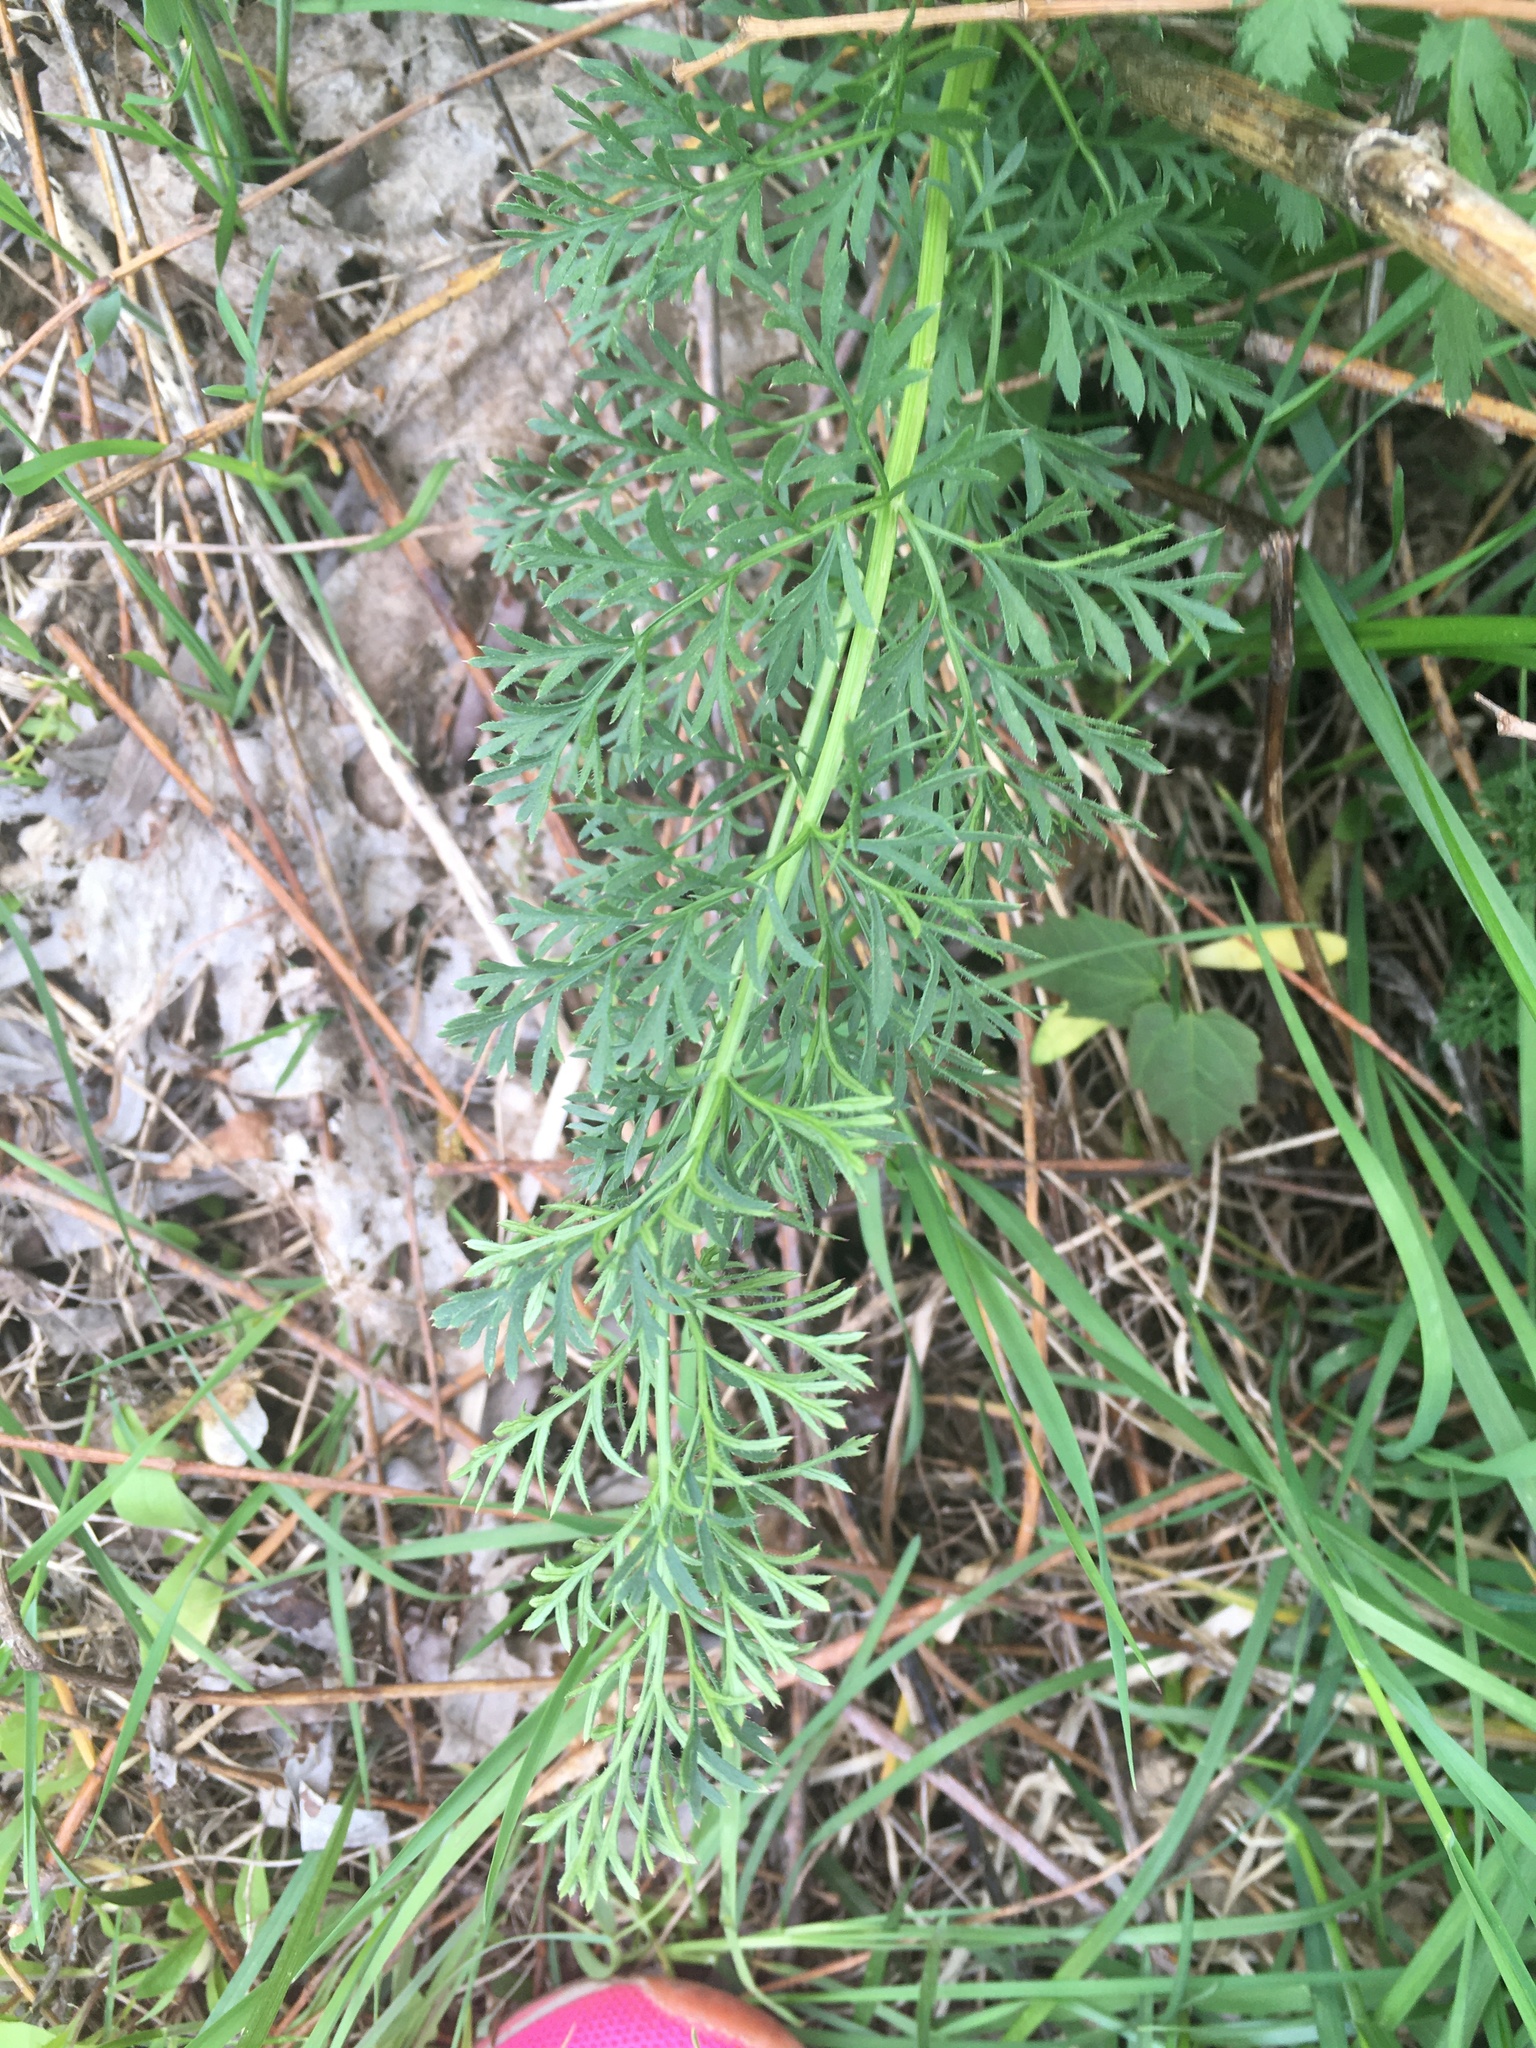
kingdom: Plantae
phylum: Tracheophyta
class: Magnoliopsida
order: Asterales
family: Asteraceae
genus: Achillea
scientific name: Achillea millefolium
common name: Yarrow
